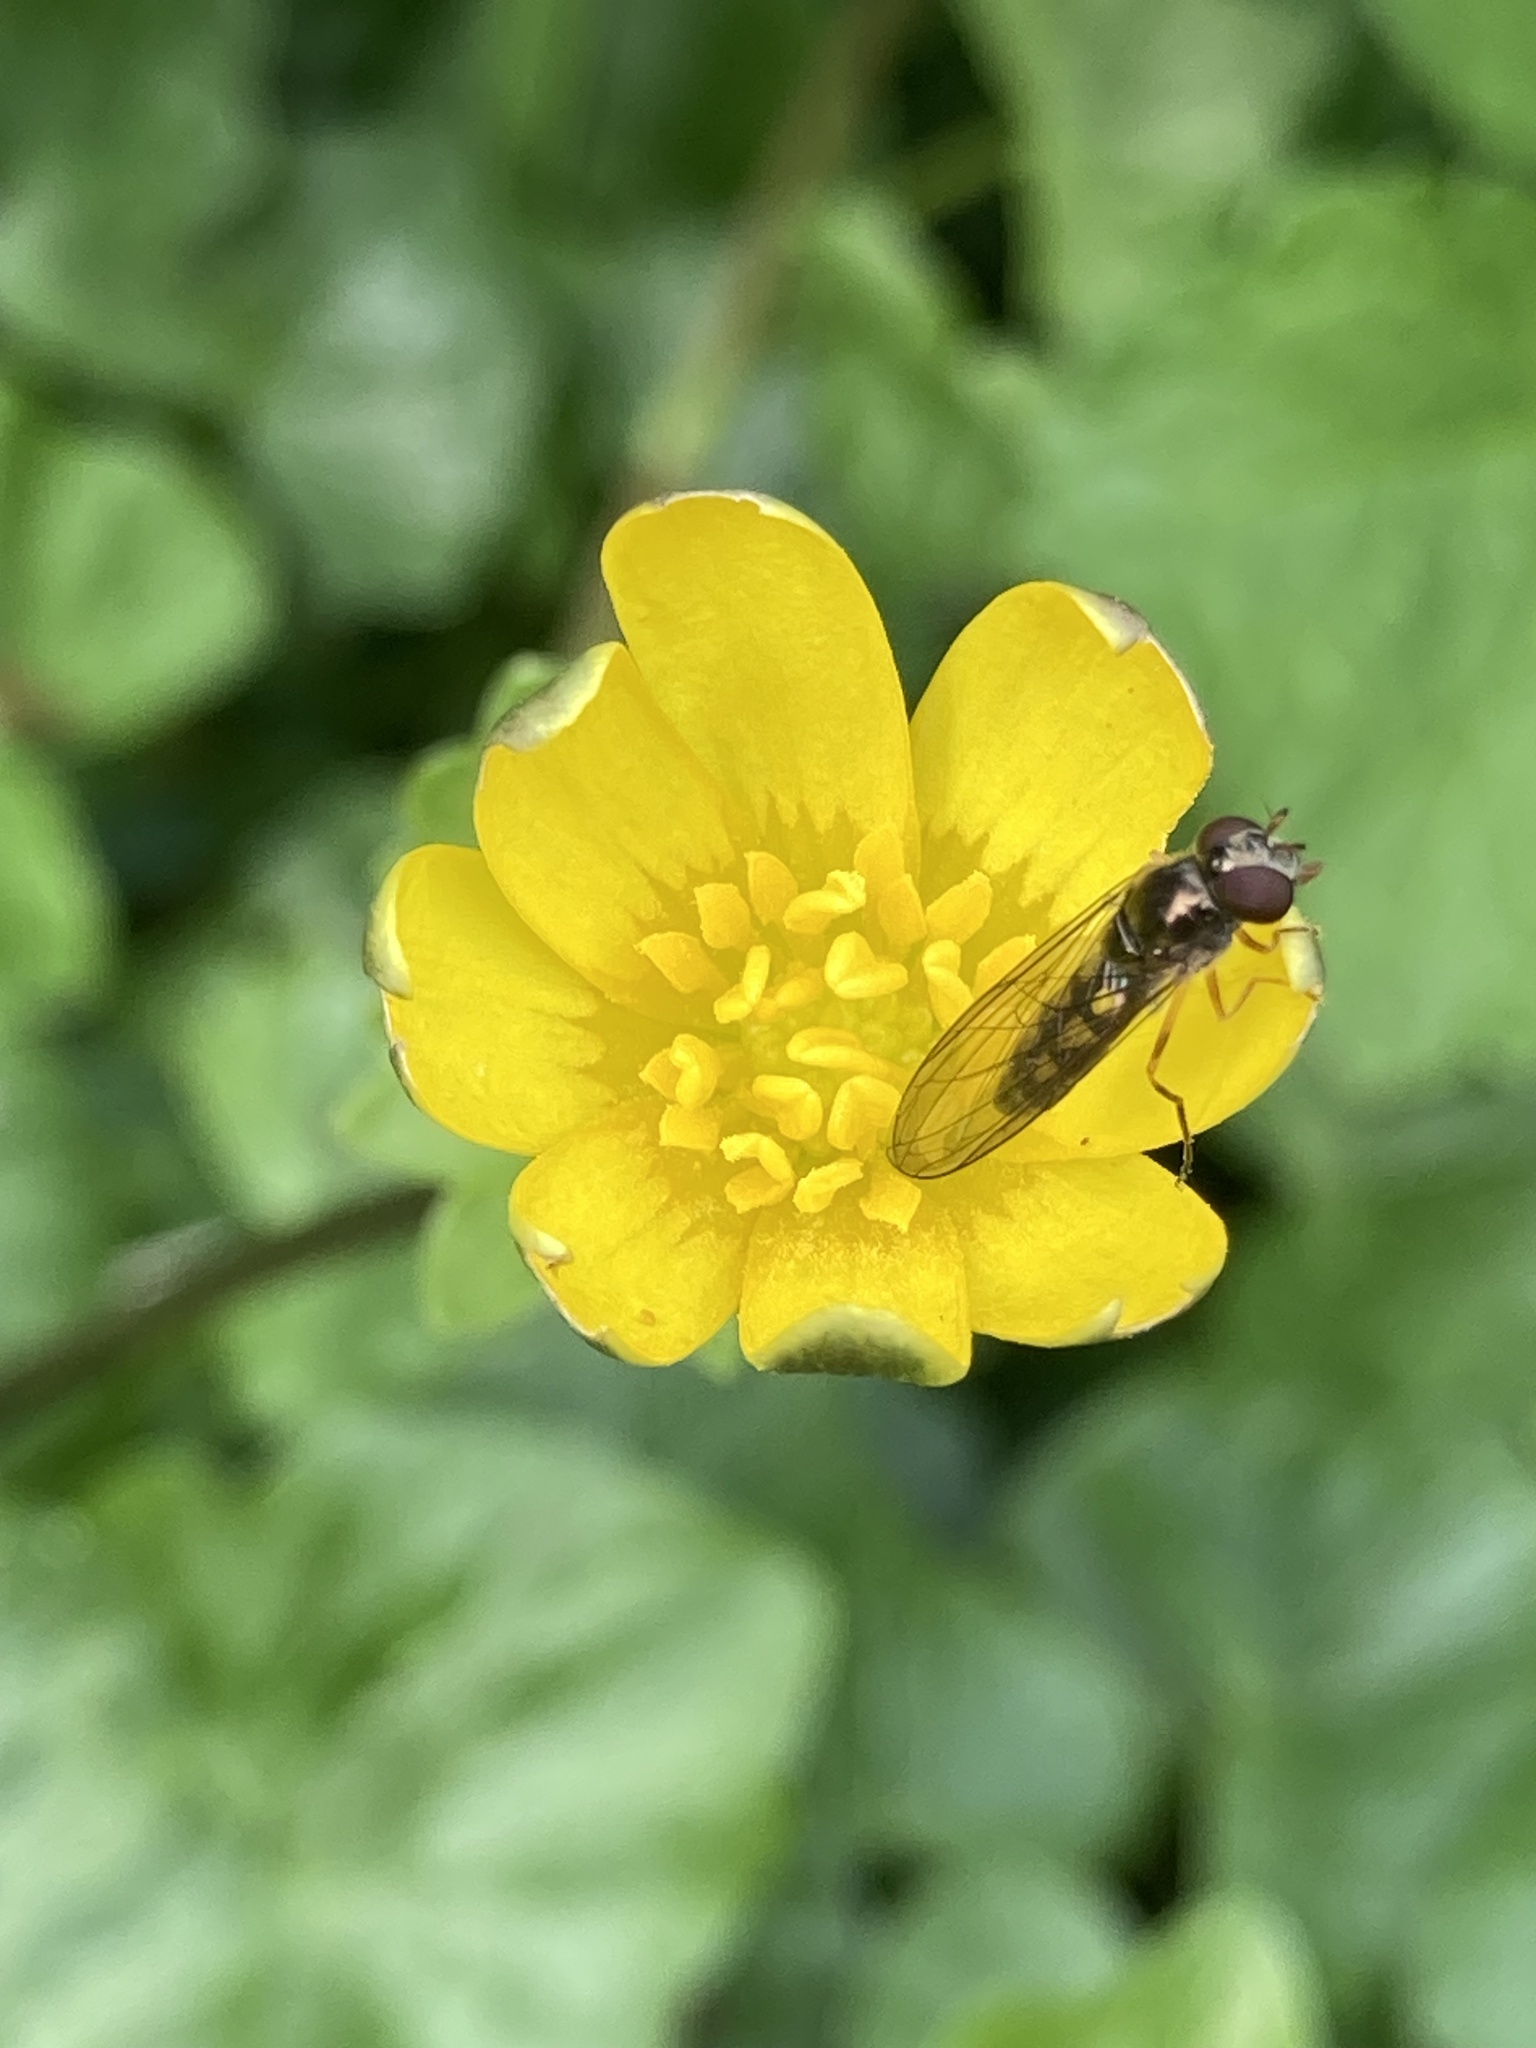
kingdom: Animalia
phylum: Arthropoda
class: Insecta
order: Diptera
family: Syrphidae
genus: Melanostoma
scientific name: Melanostoma scalare
